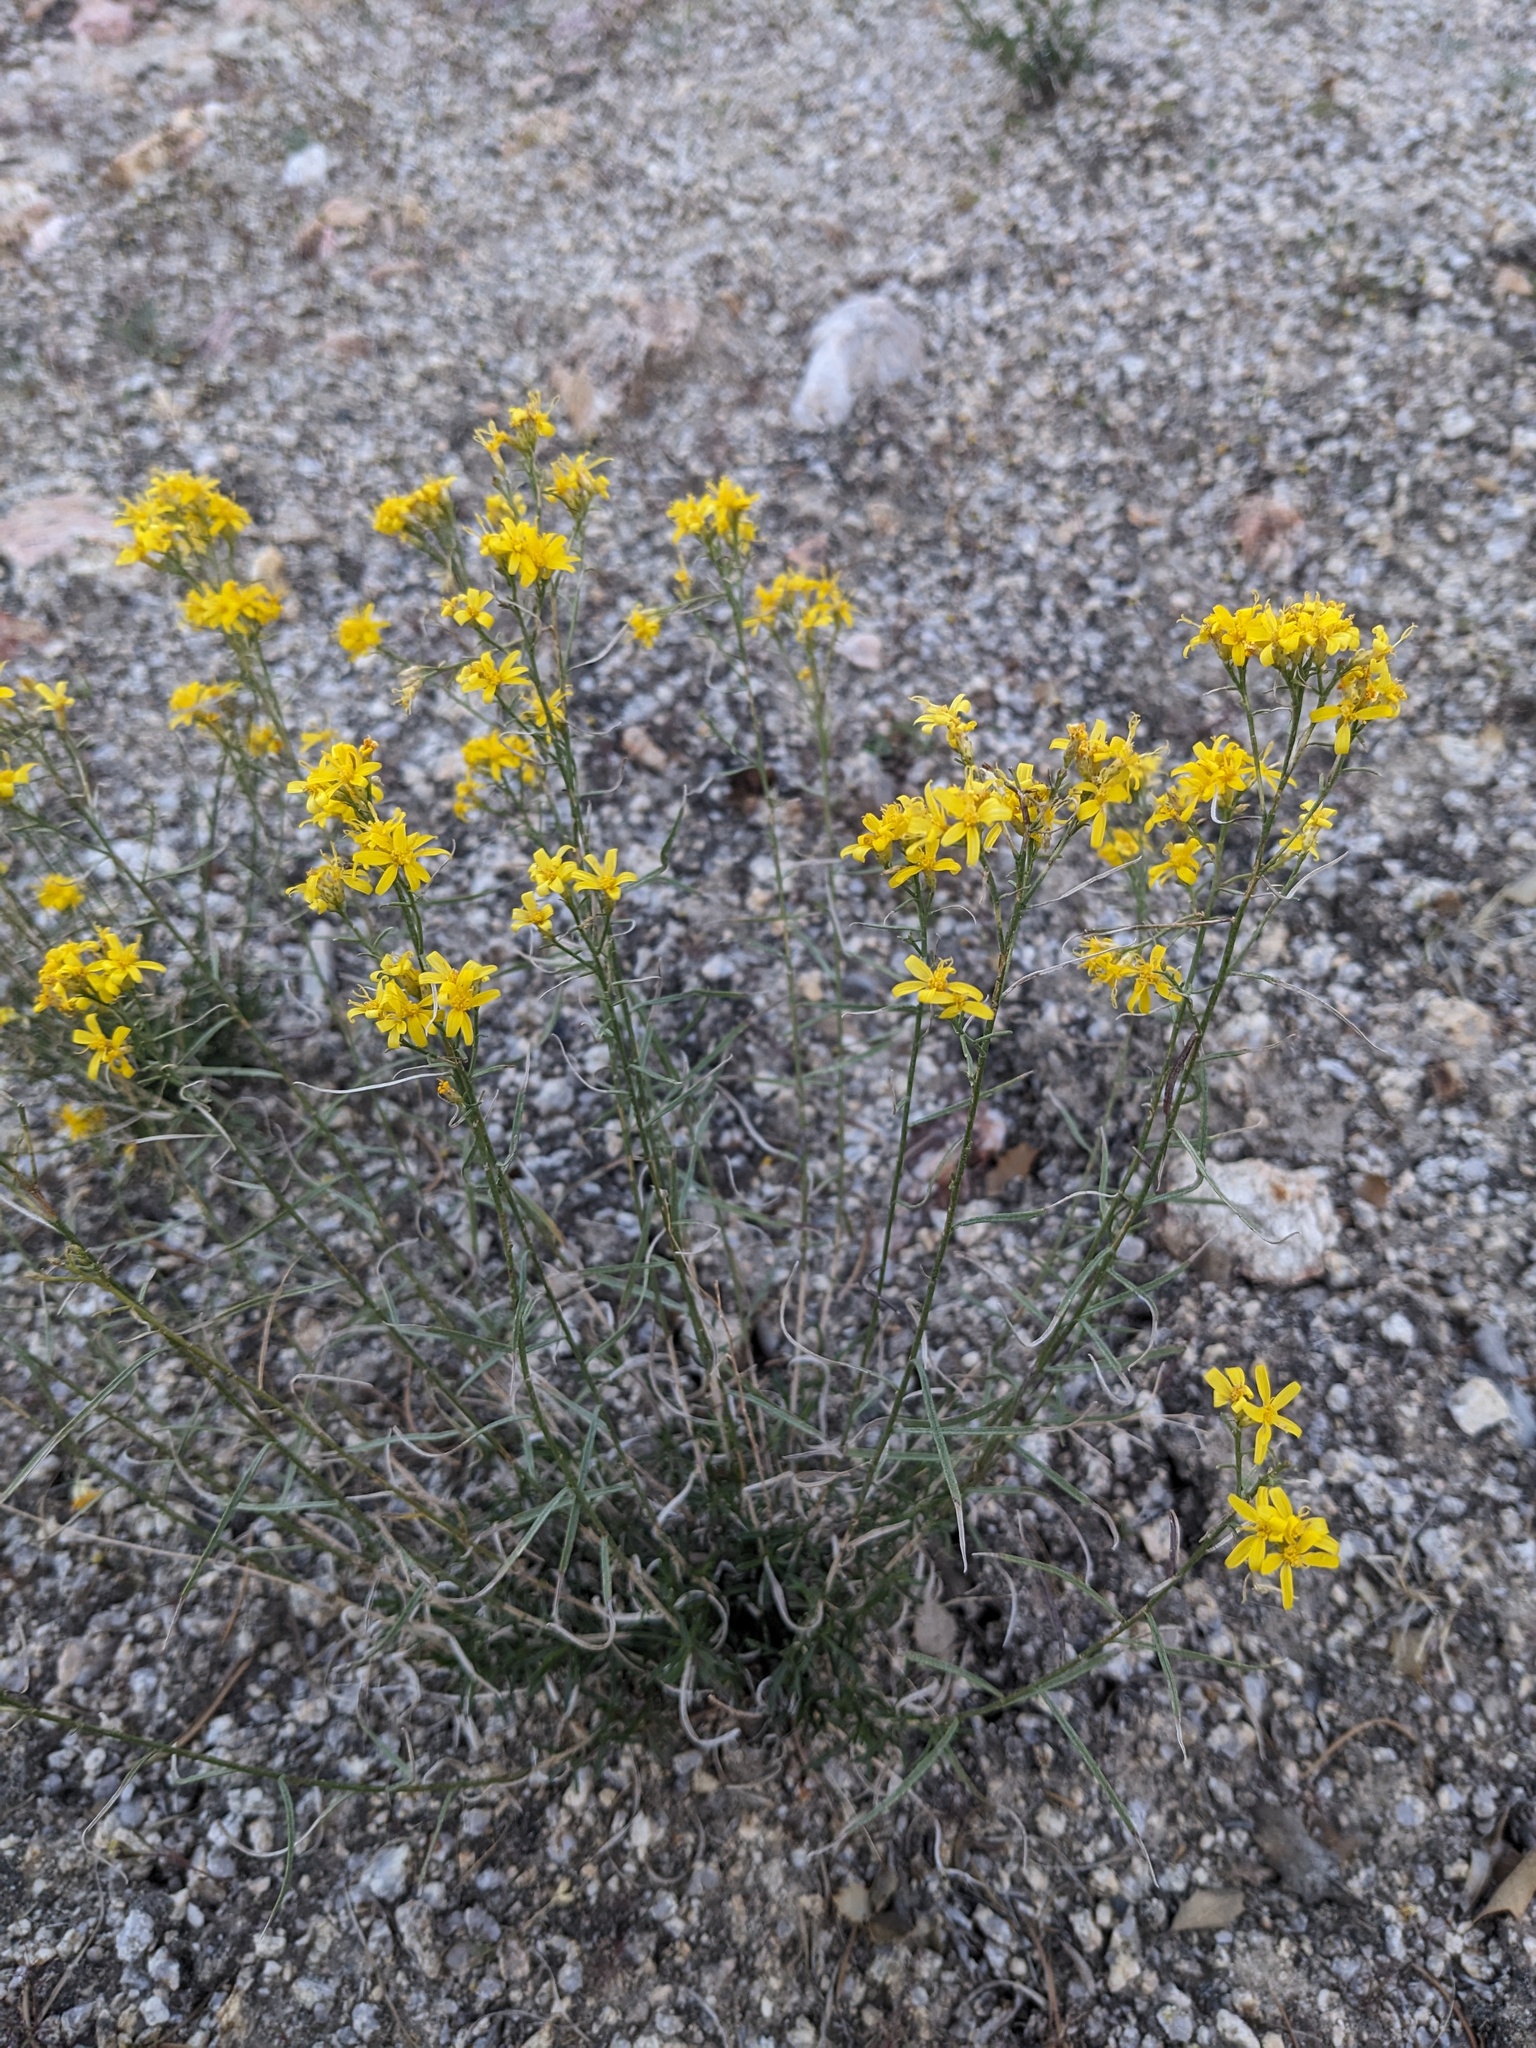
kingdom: Plantae
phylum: Tracheophyta
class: Magnoliopsida
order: Asterales
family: Asteraceae
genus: Gutierrezia
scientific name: Gutierrezia sarothrae
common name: Broom snakeweed
